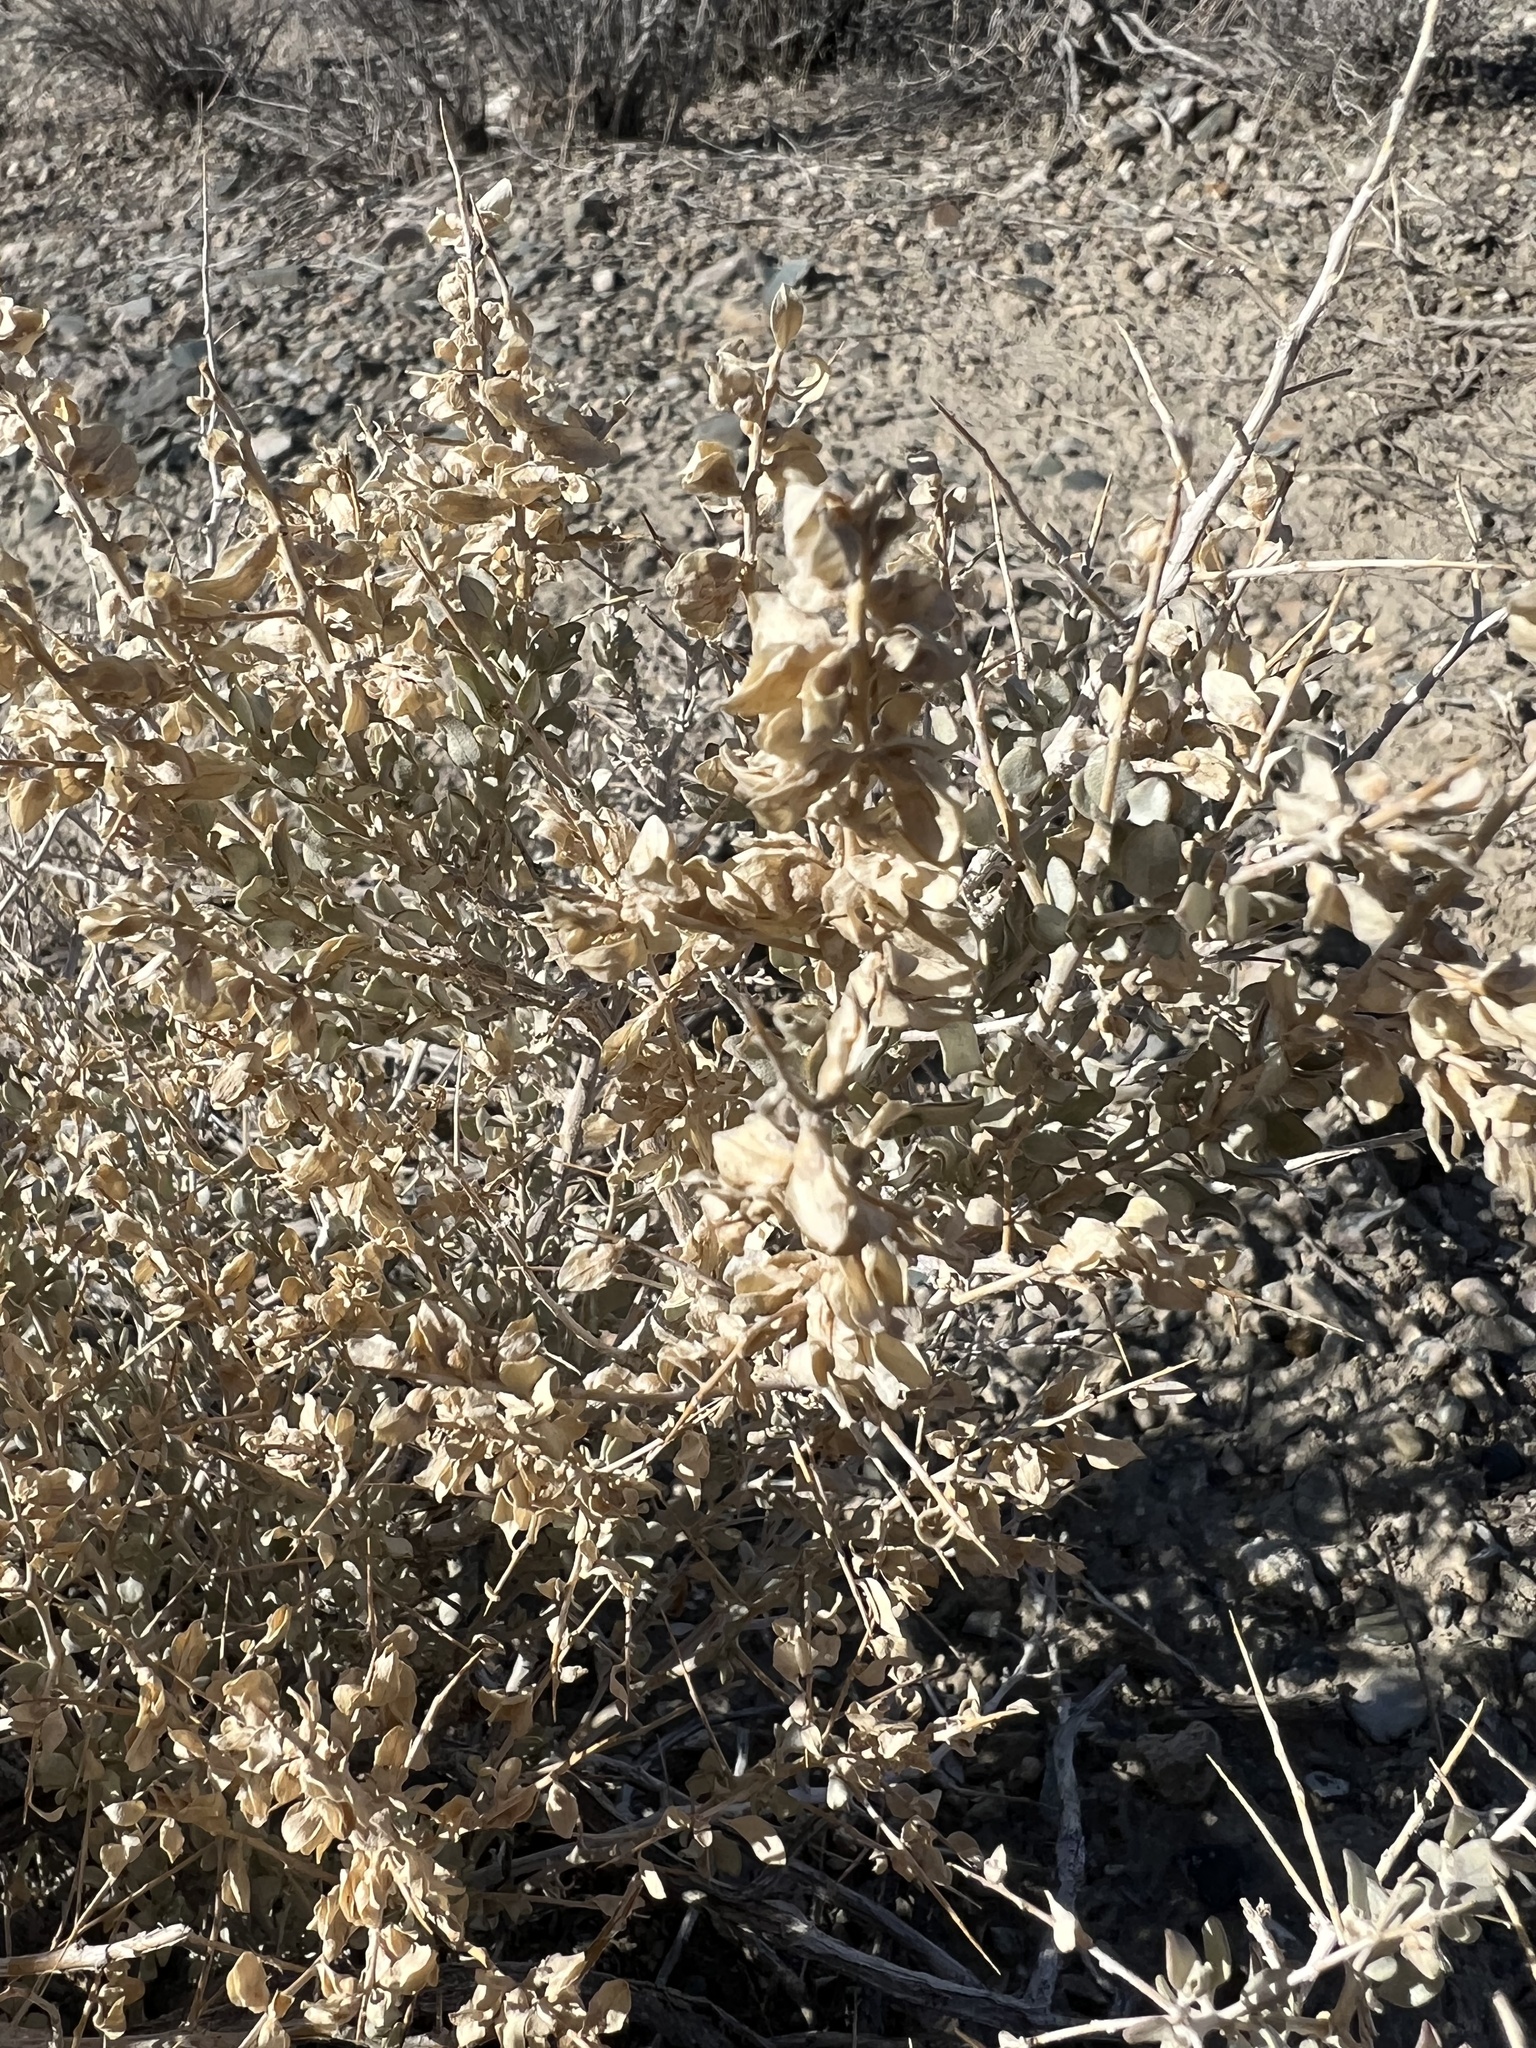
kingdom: Plantae
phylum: Tracheophyta
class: Magnoliopsida
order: Caryophyllales
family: Amaranthaceae
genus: Atriplex
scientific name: Atriplex confertifolia
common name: Shadscale
